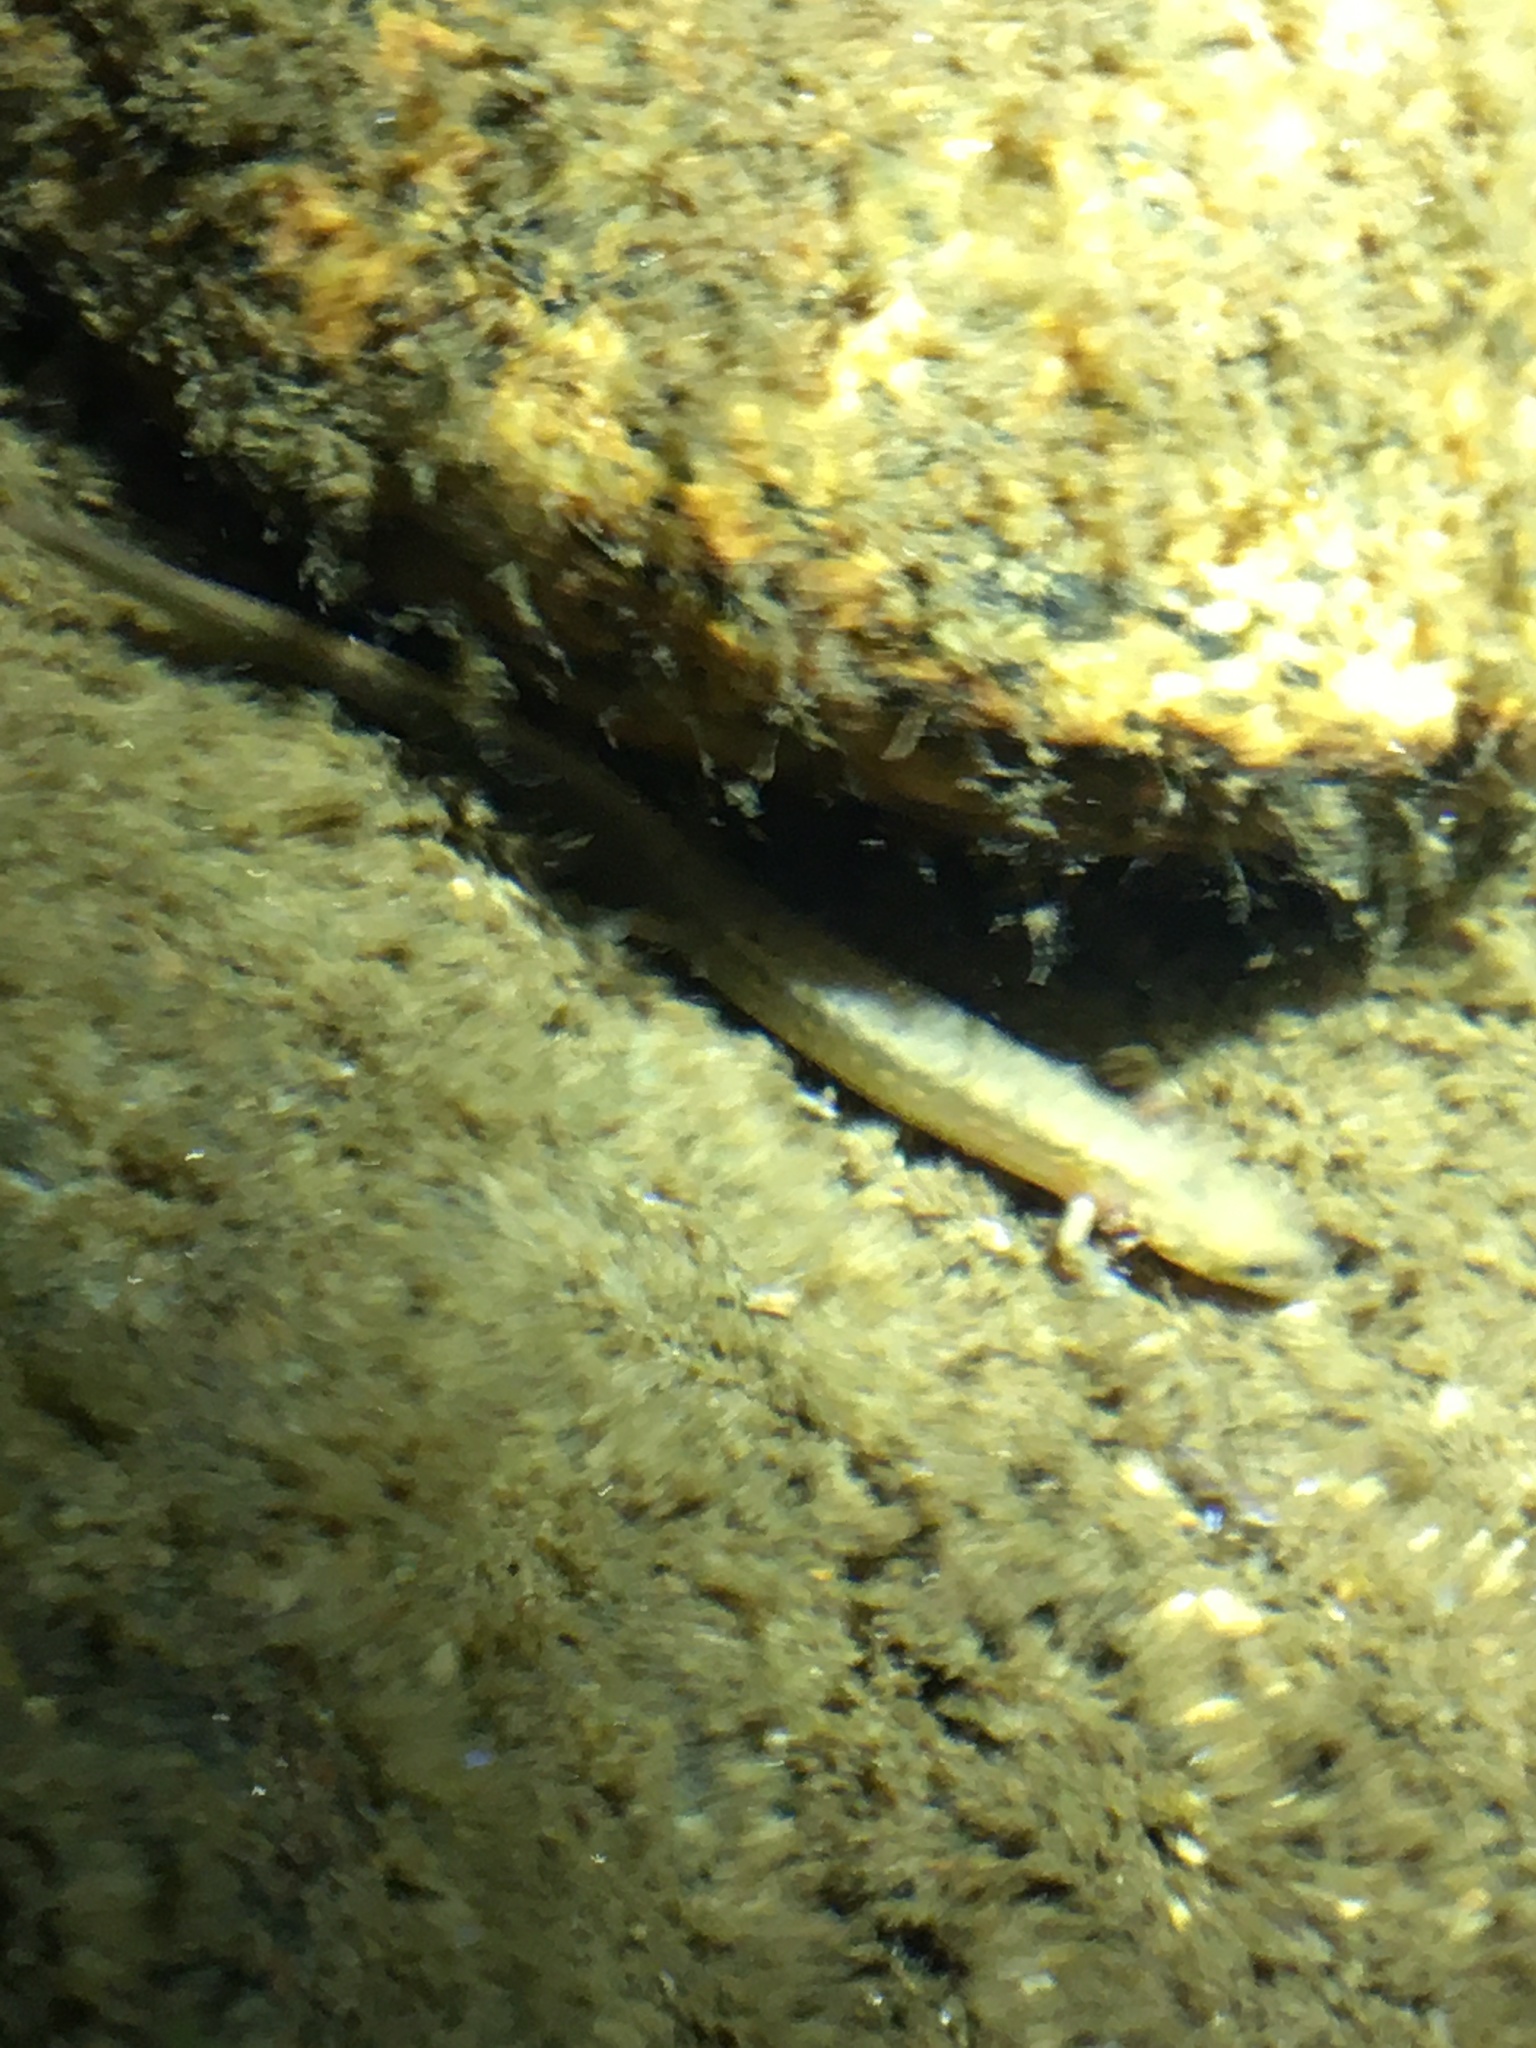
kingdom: Animalia
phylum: Chordata
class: Amphibia
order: Caudata
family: Plethodontidae
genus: Eurycea
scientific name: Eurycea bislineata
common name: Northern two-lined salamander
